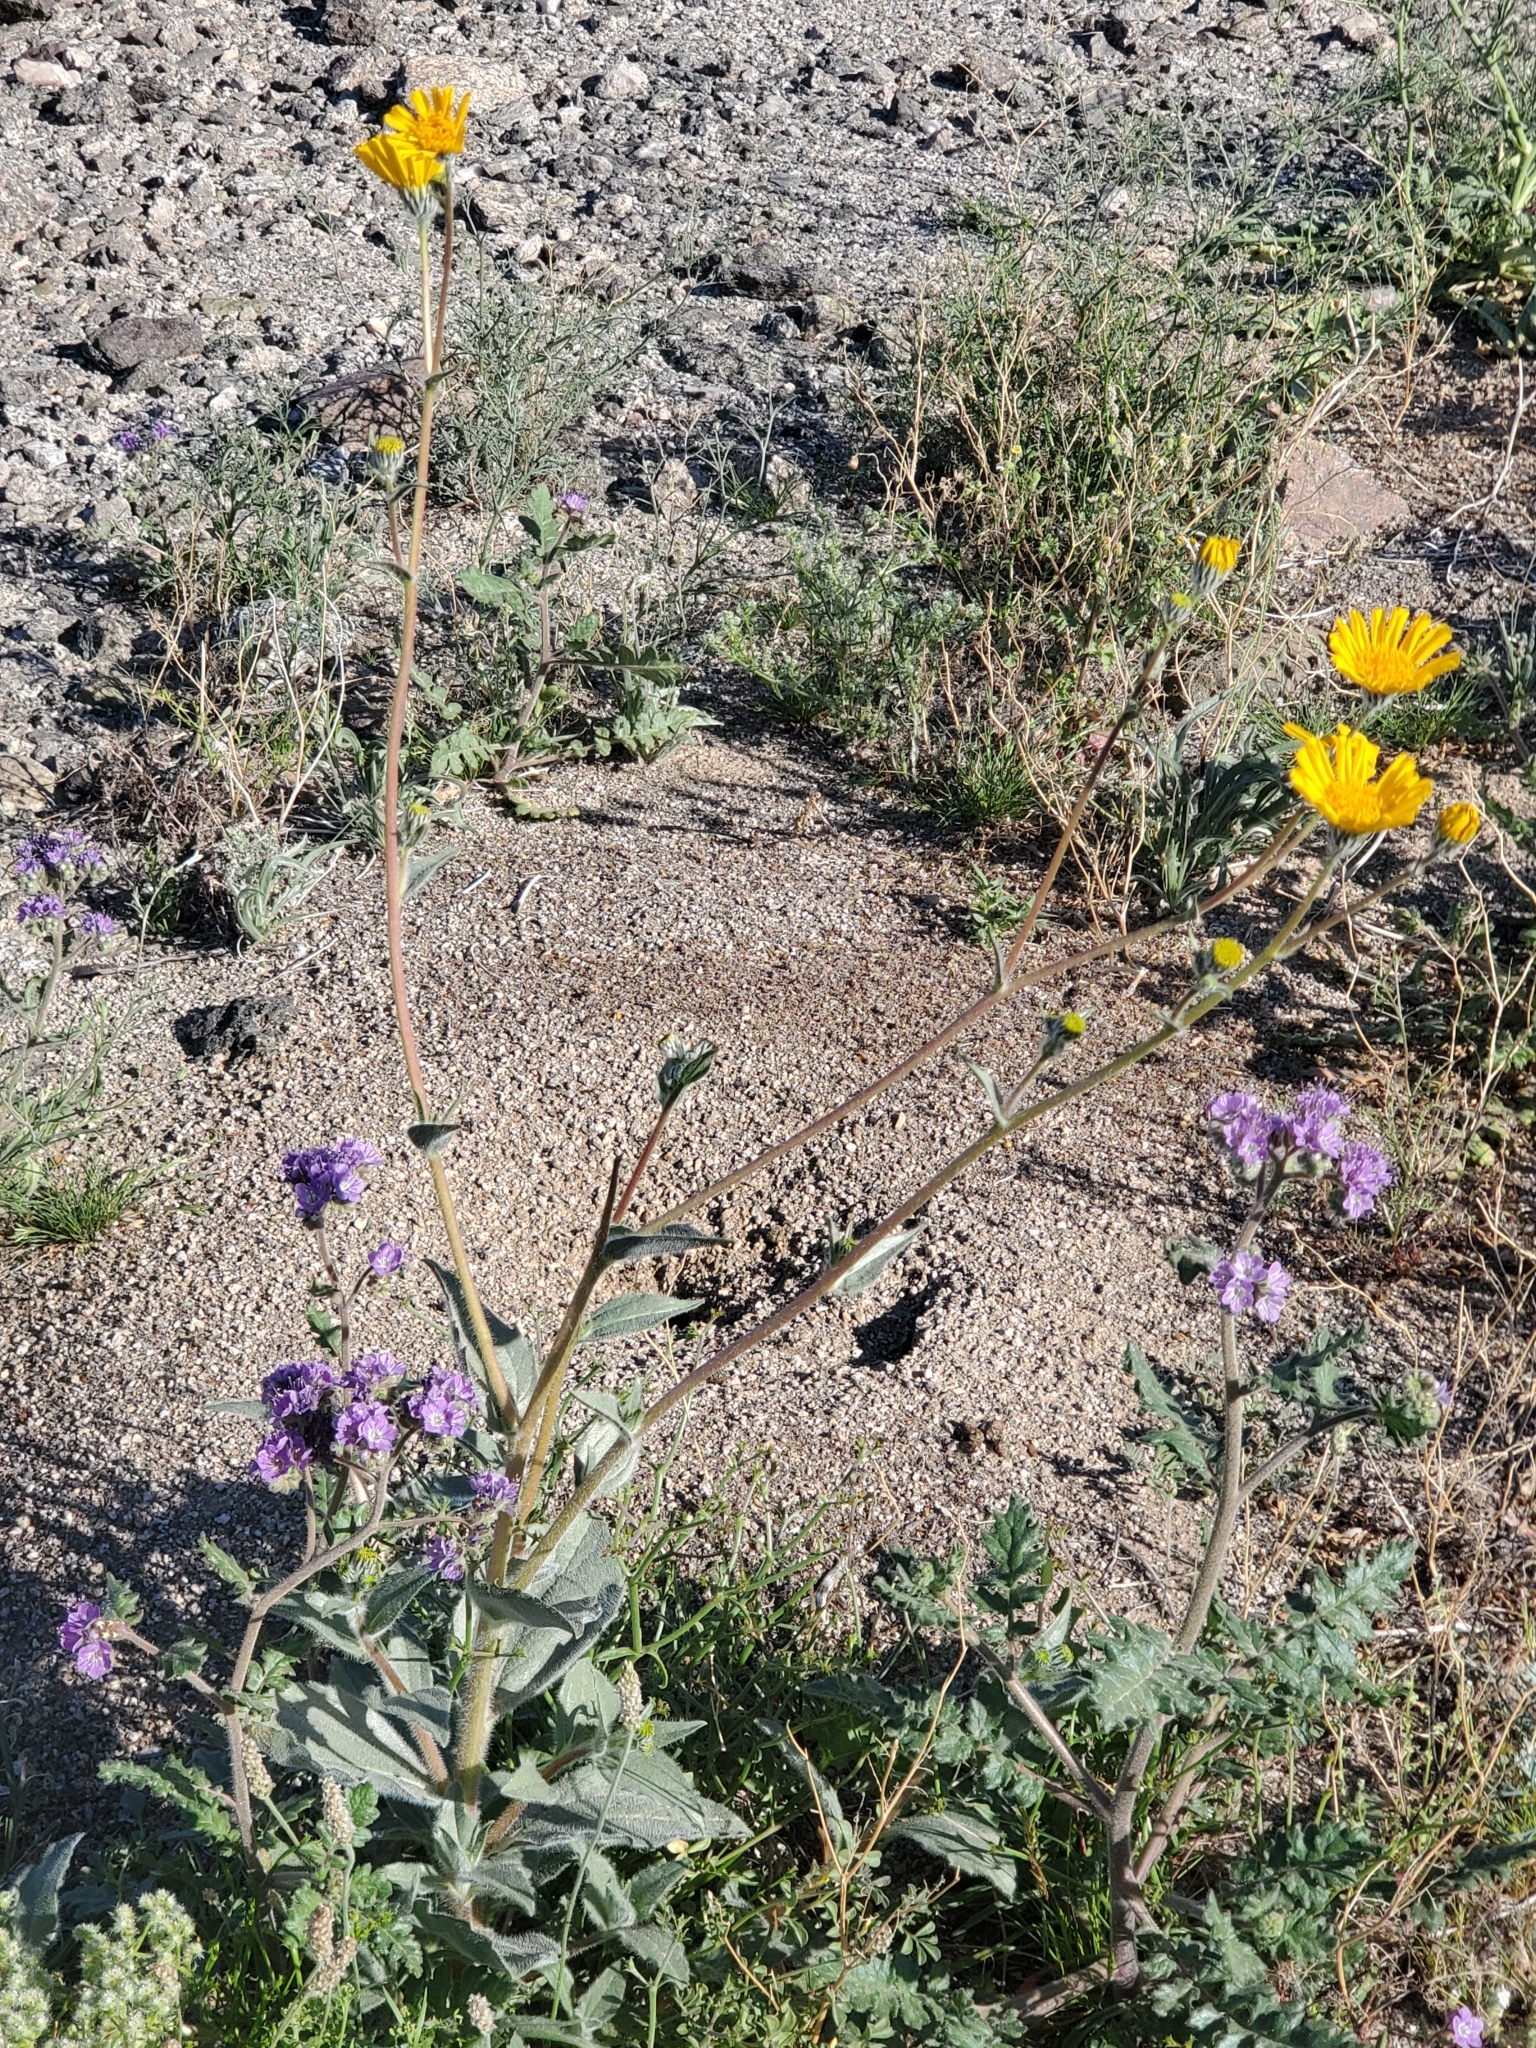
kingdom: Plantae
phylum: Tracheophyta
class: Magnoliopsida
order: Boraginales
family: Hydrophyllaceae
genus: Phacelia
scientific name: Phacelia crenulata
